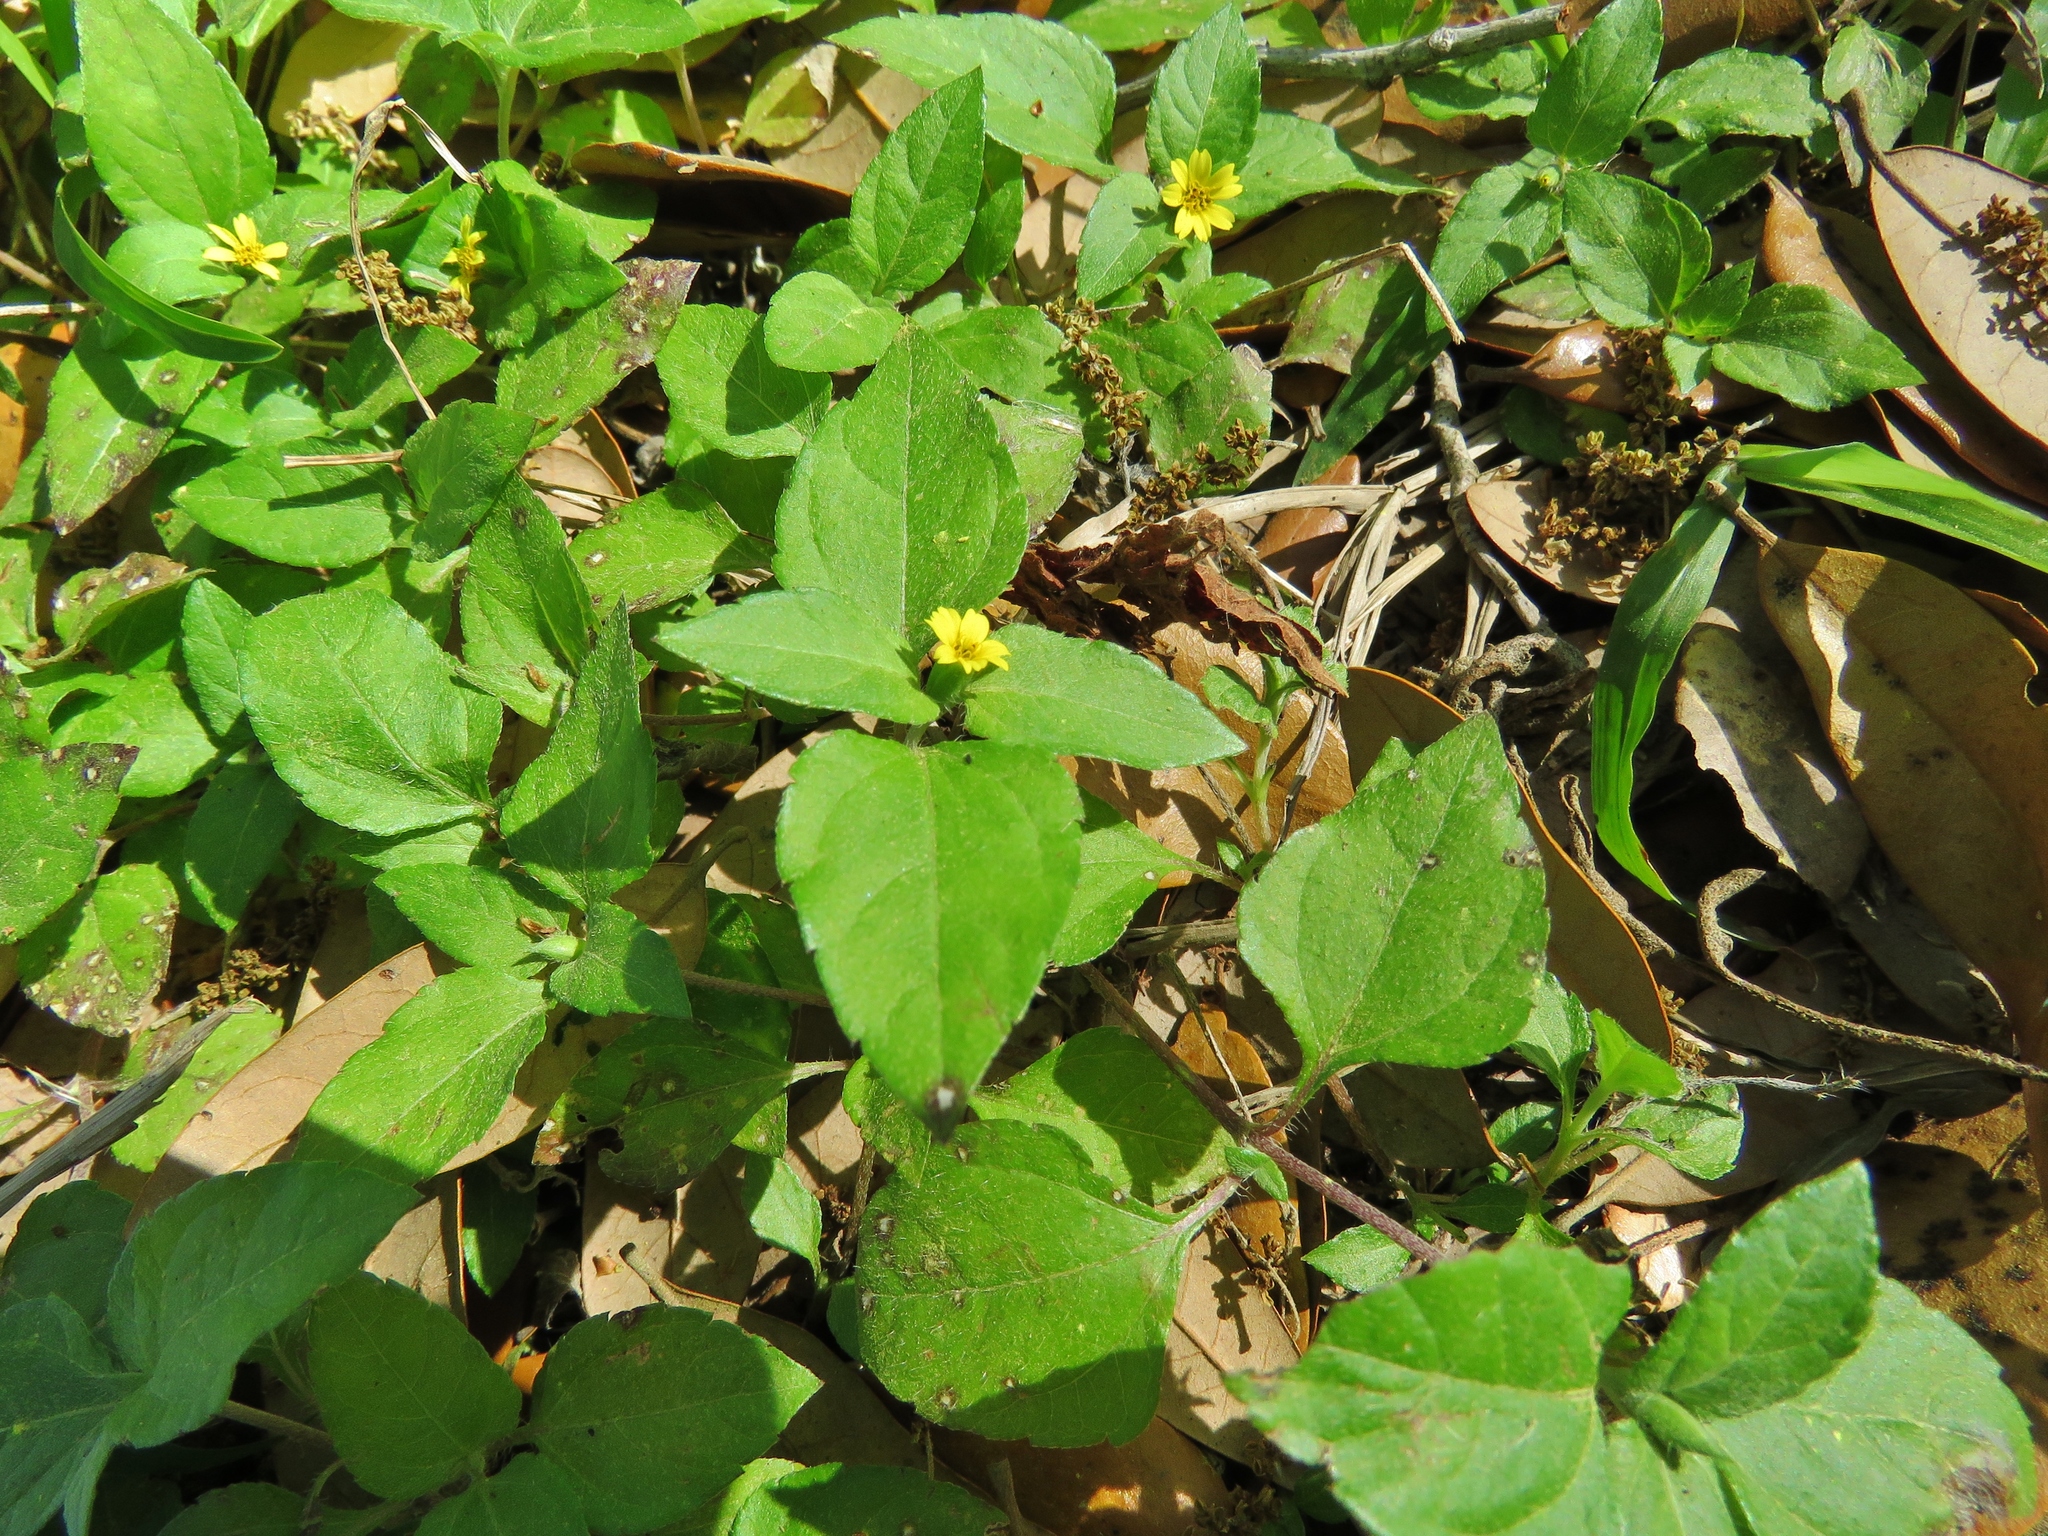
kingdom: Plantae
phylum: Tracheophyta
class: Magnoliopsida
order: Asterales
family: Asteraceae
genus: Calyptocarpus
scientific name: Calyptocarpus vialis
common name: Straggler daisy
